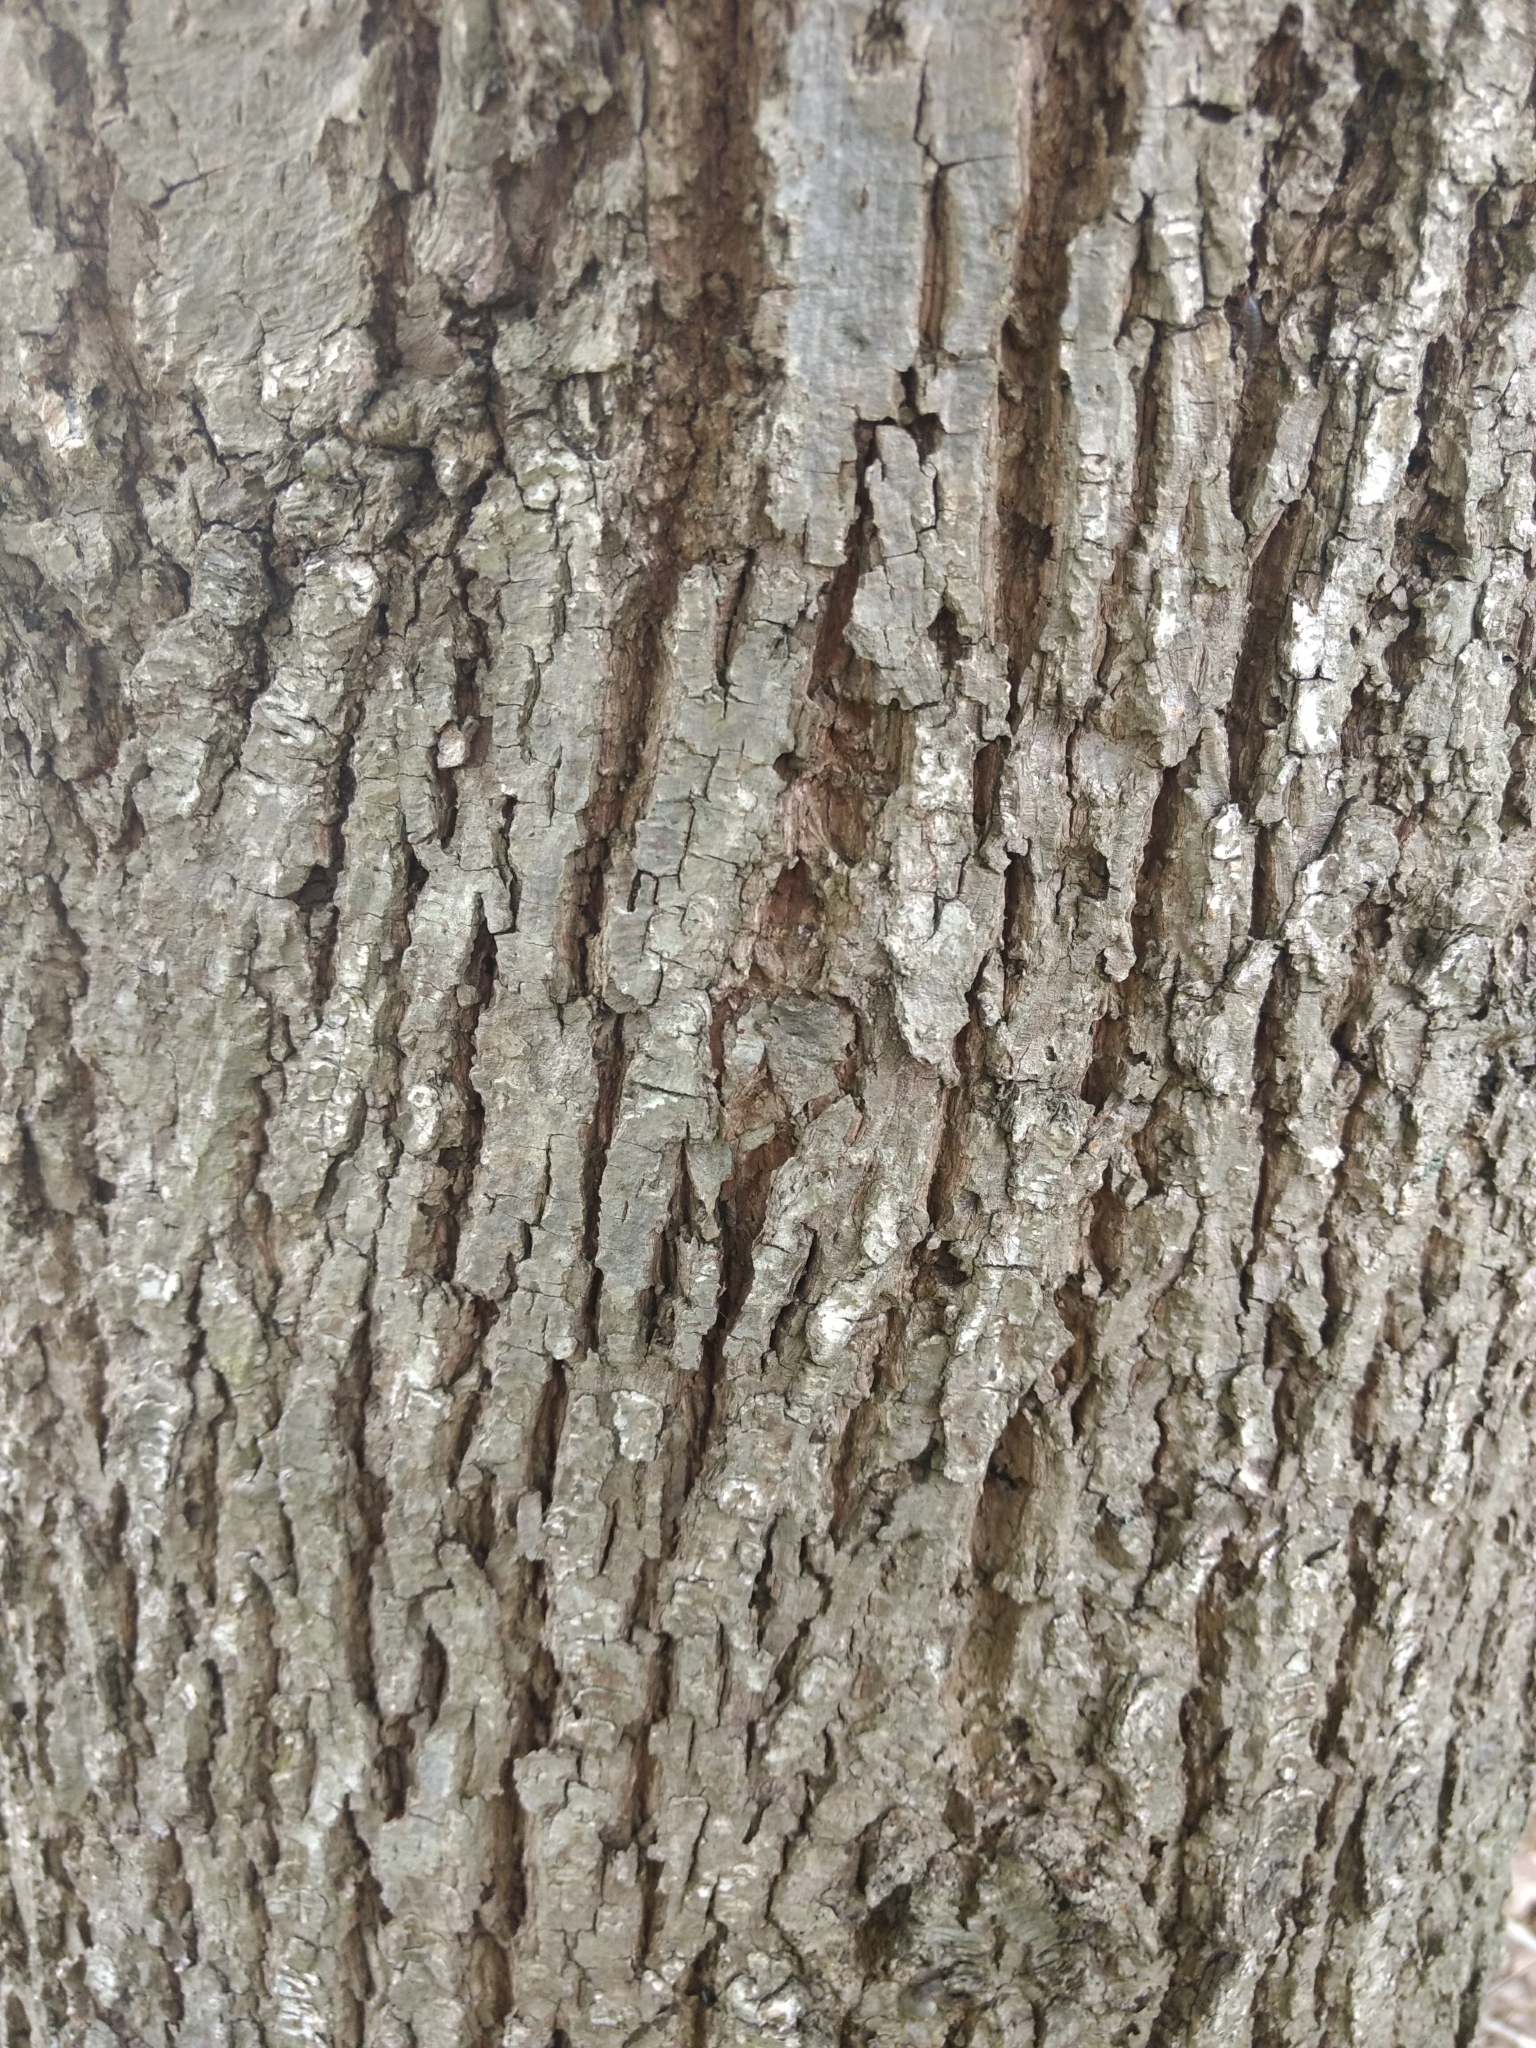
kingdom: Plantae
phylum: Tracheophyta
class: Magnoliopsida
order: Malvales
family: Malvaceae
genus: Tilia
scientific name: Tilia americana
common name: Basswood
